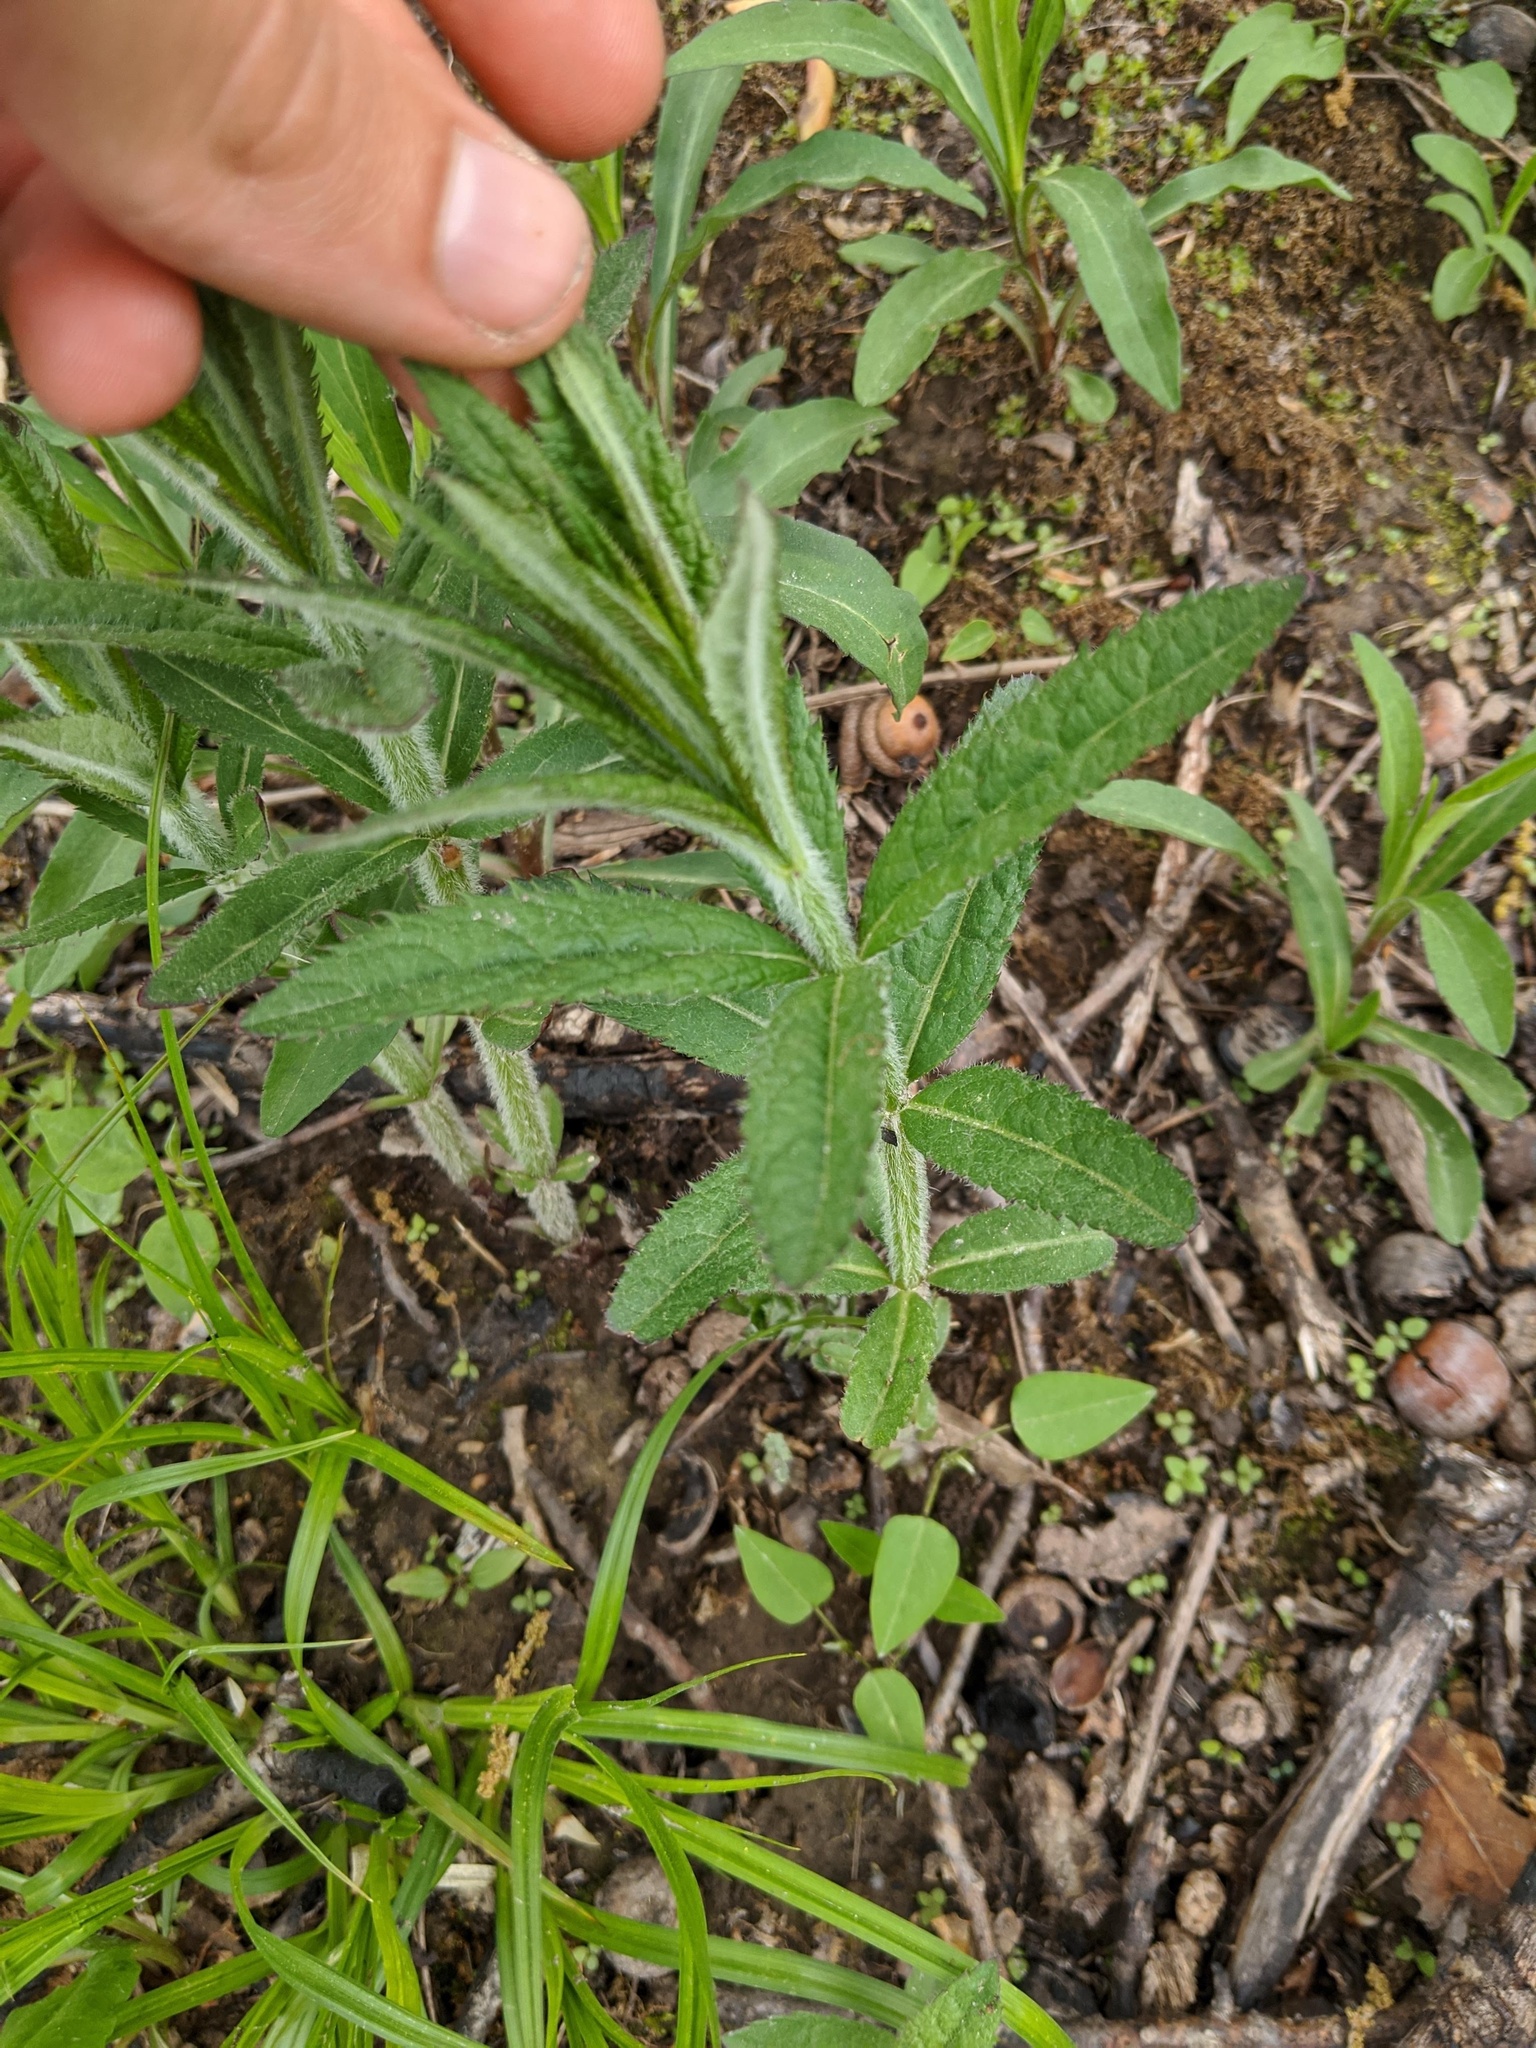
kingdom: Plantae
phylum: Tracheophyta
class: Magnoliopsida
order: Lamiales
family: Plantaginaceae
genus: Veronicastrum
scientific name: Veronicastrum virginicum
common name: Blackroot
